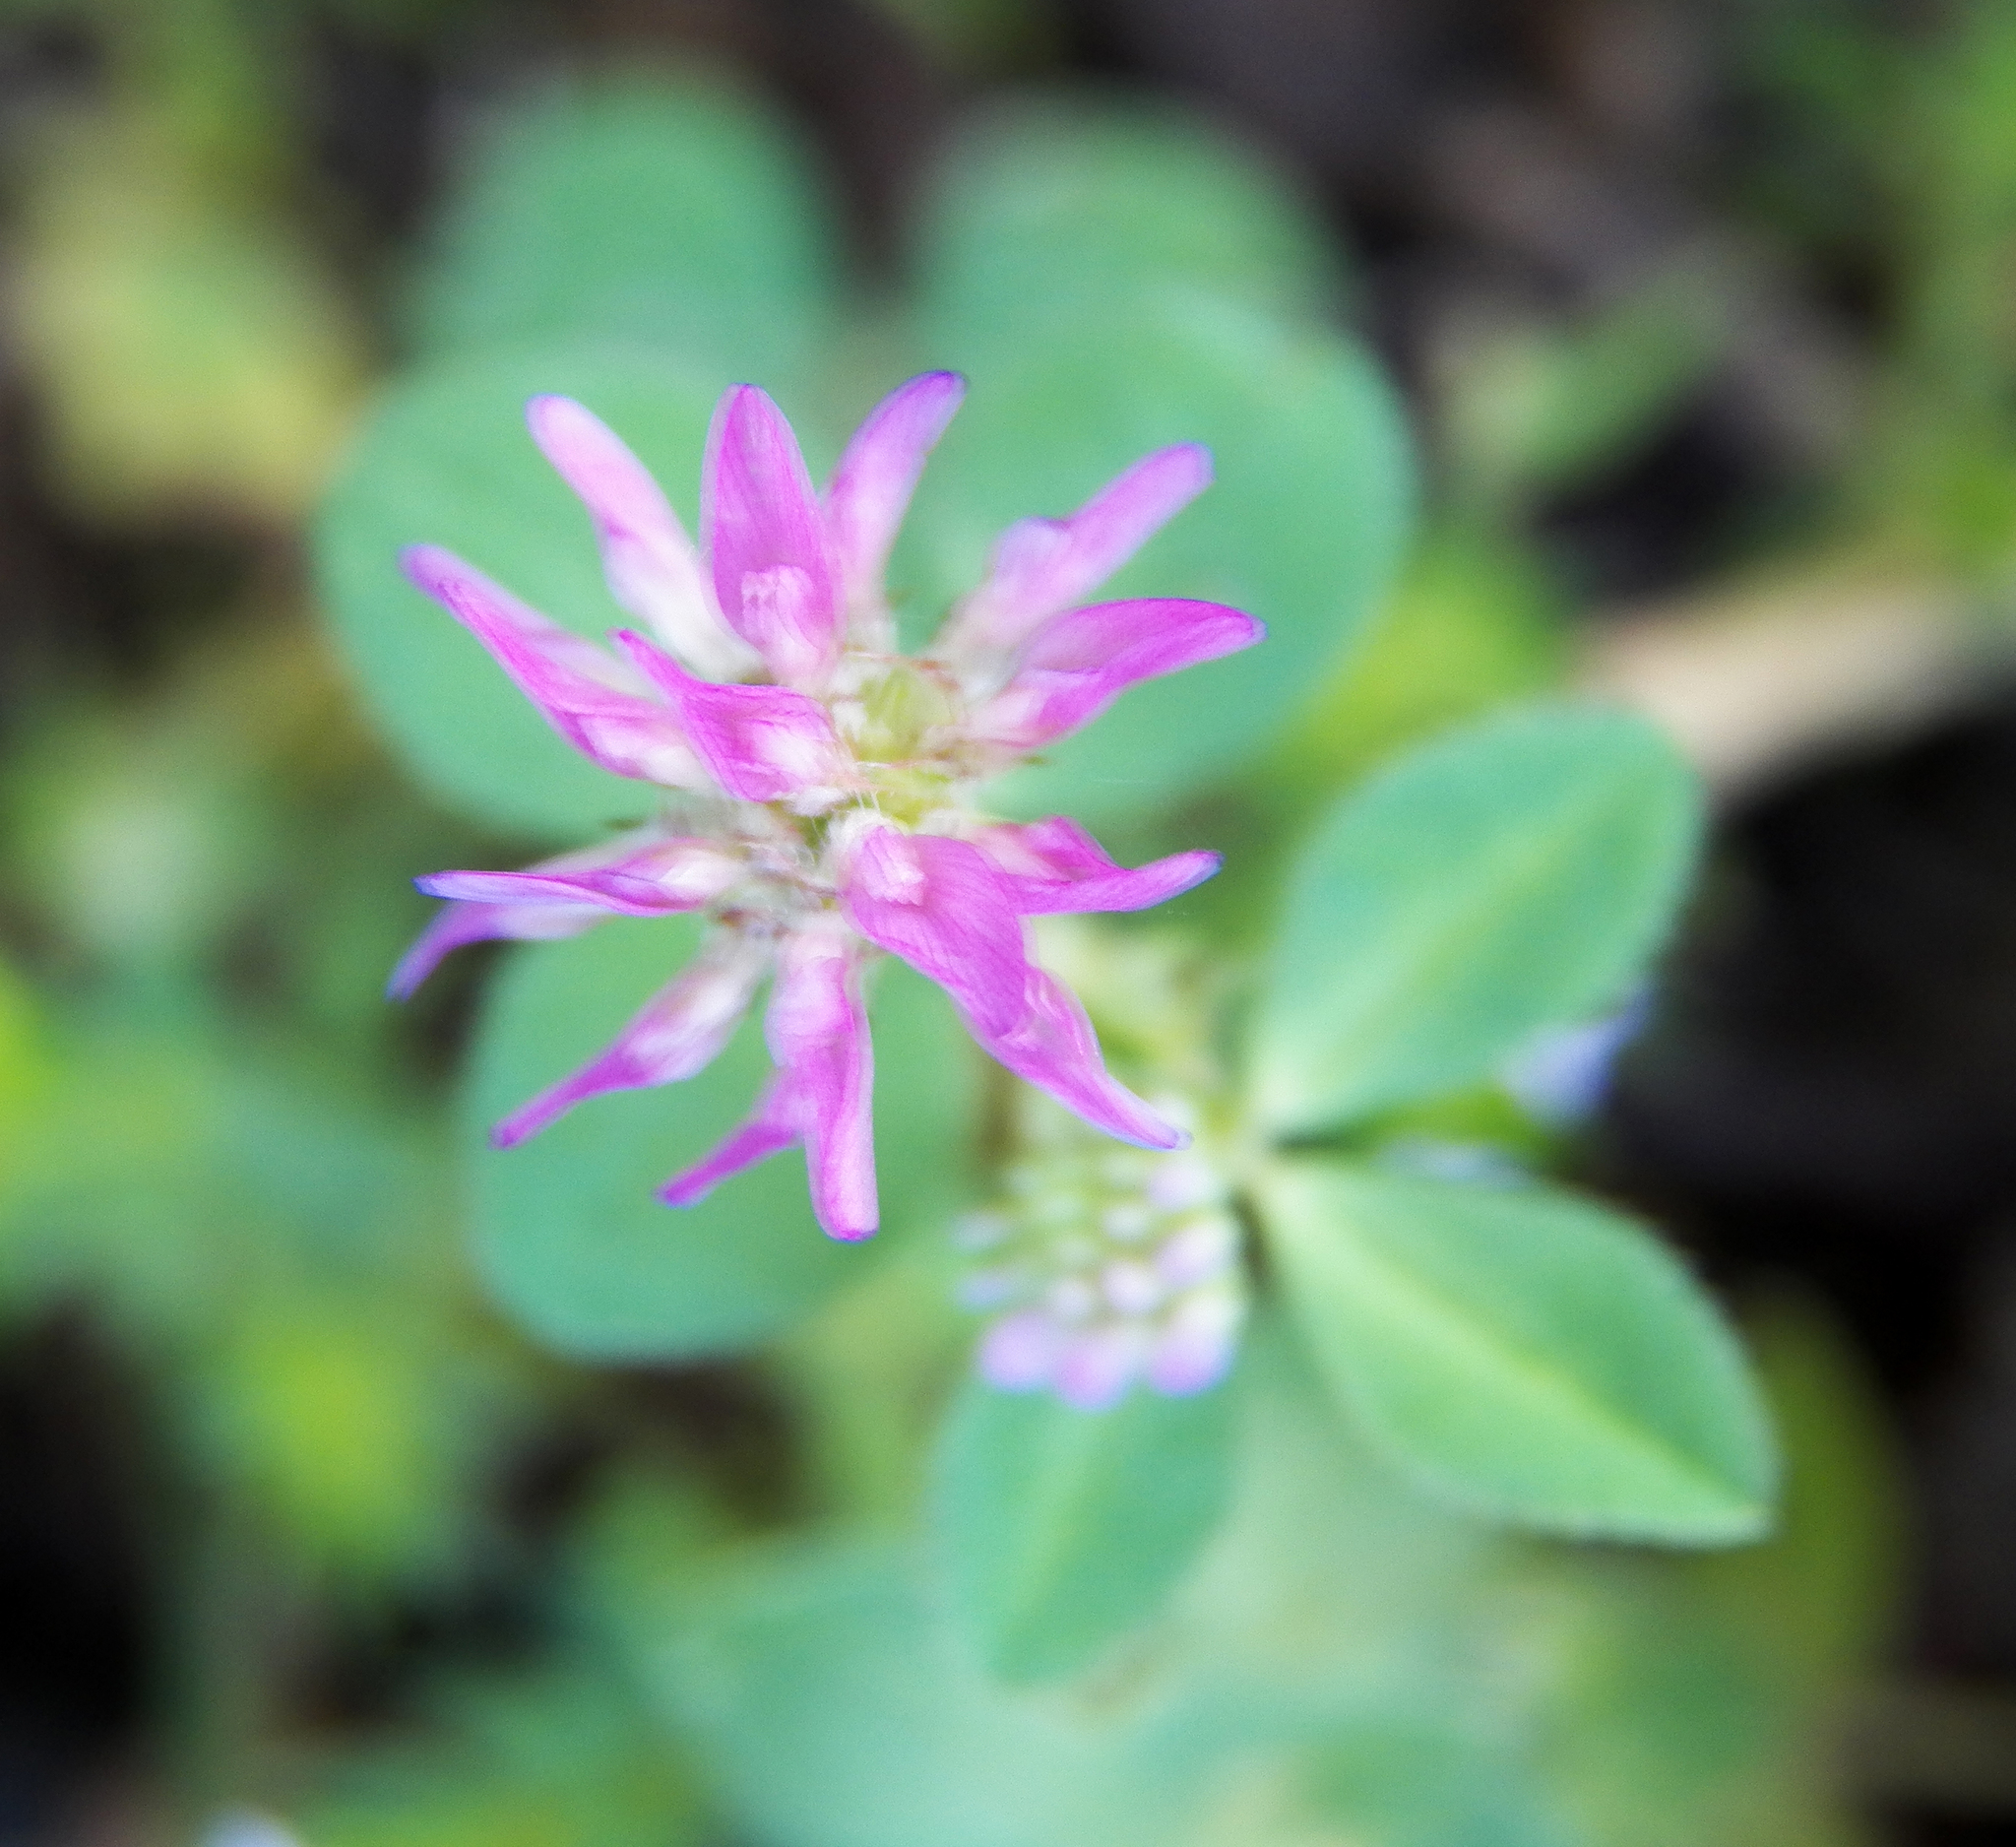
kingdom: Plantae
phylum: Tracheophyta
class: Magnoliopsida
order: Fabales
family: Fabaceae
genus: Trifolium
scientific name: Trifolium resupinatum
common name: Reversed clover
